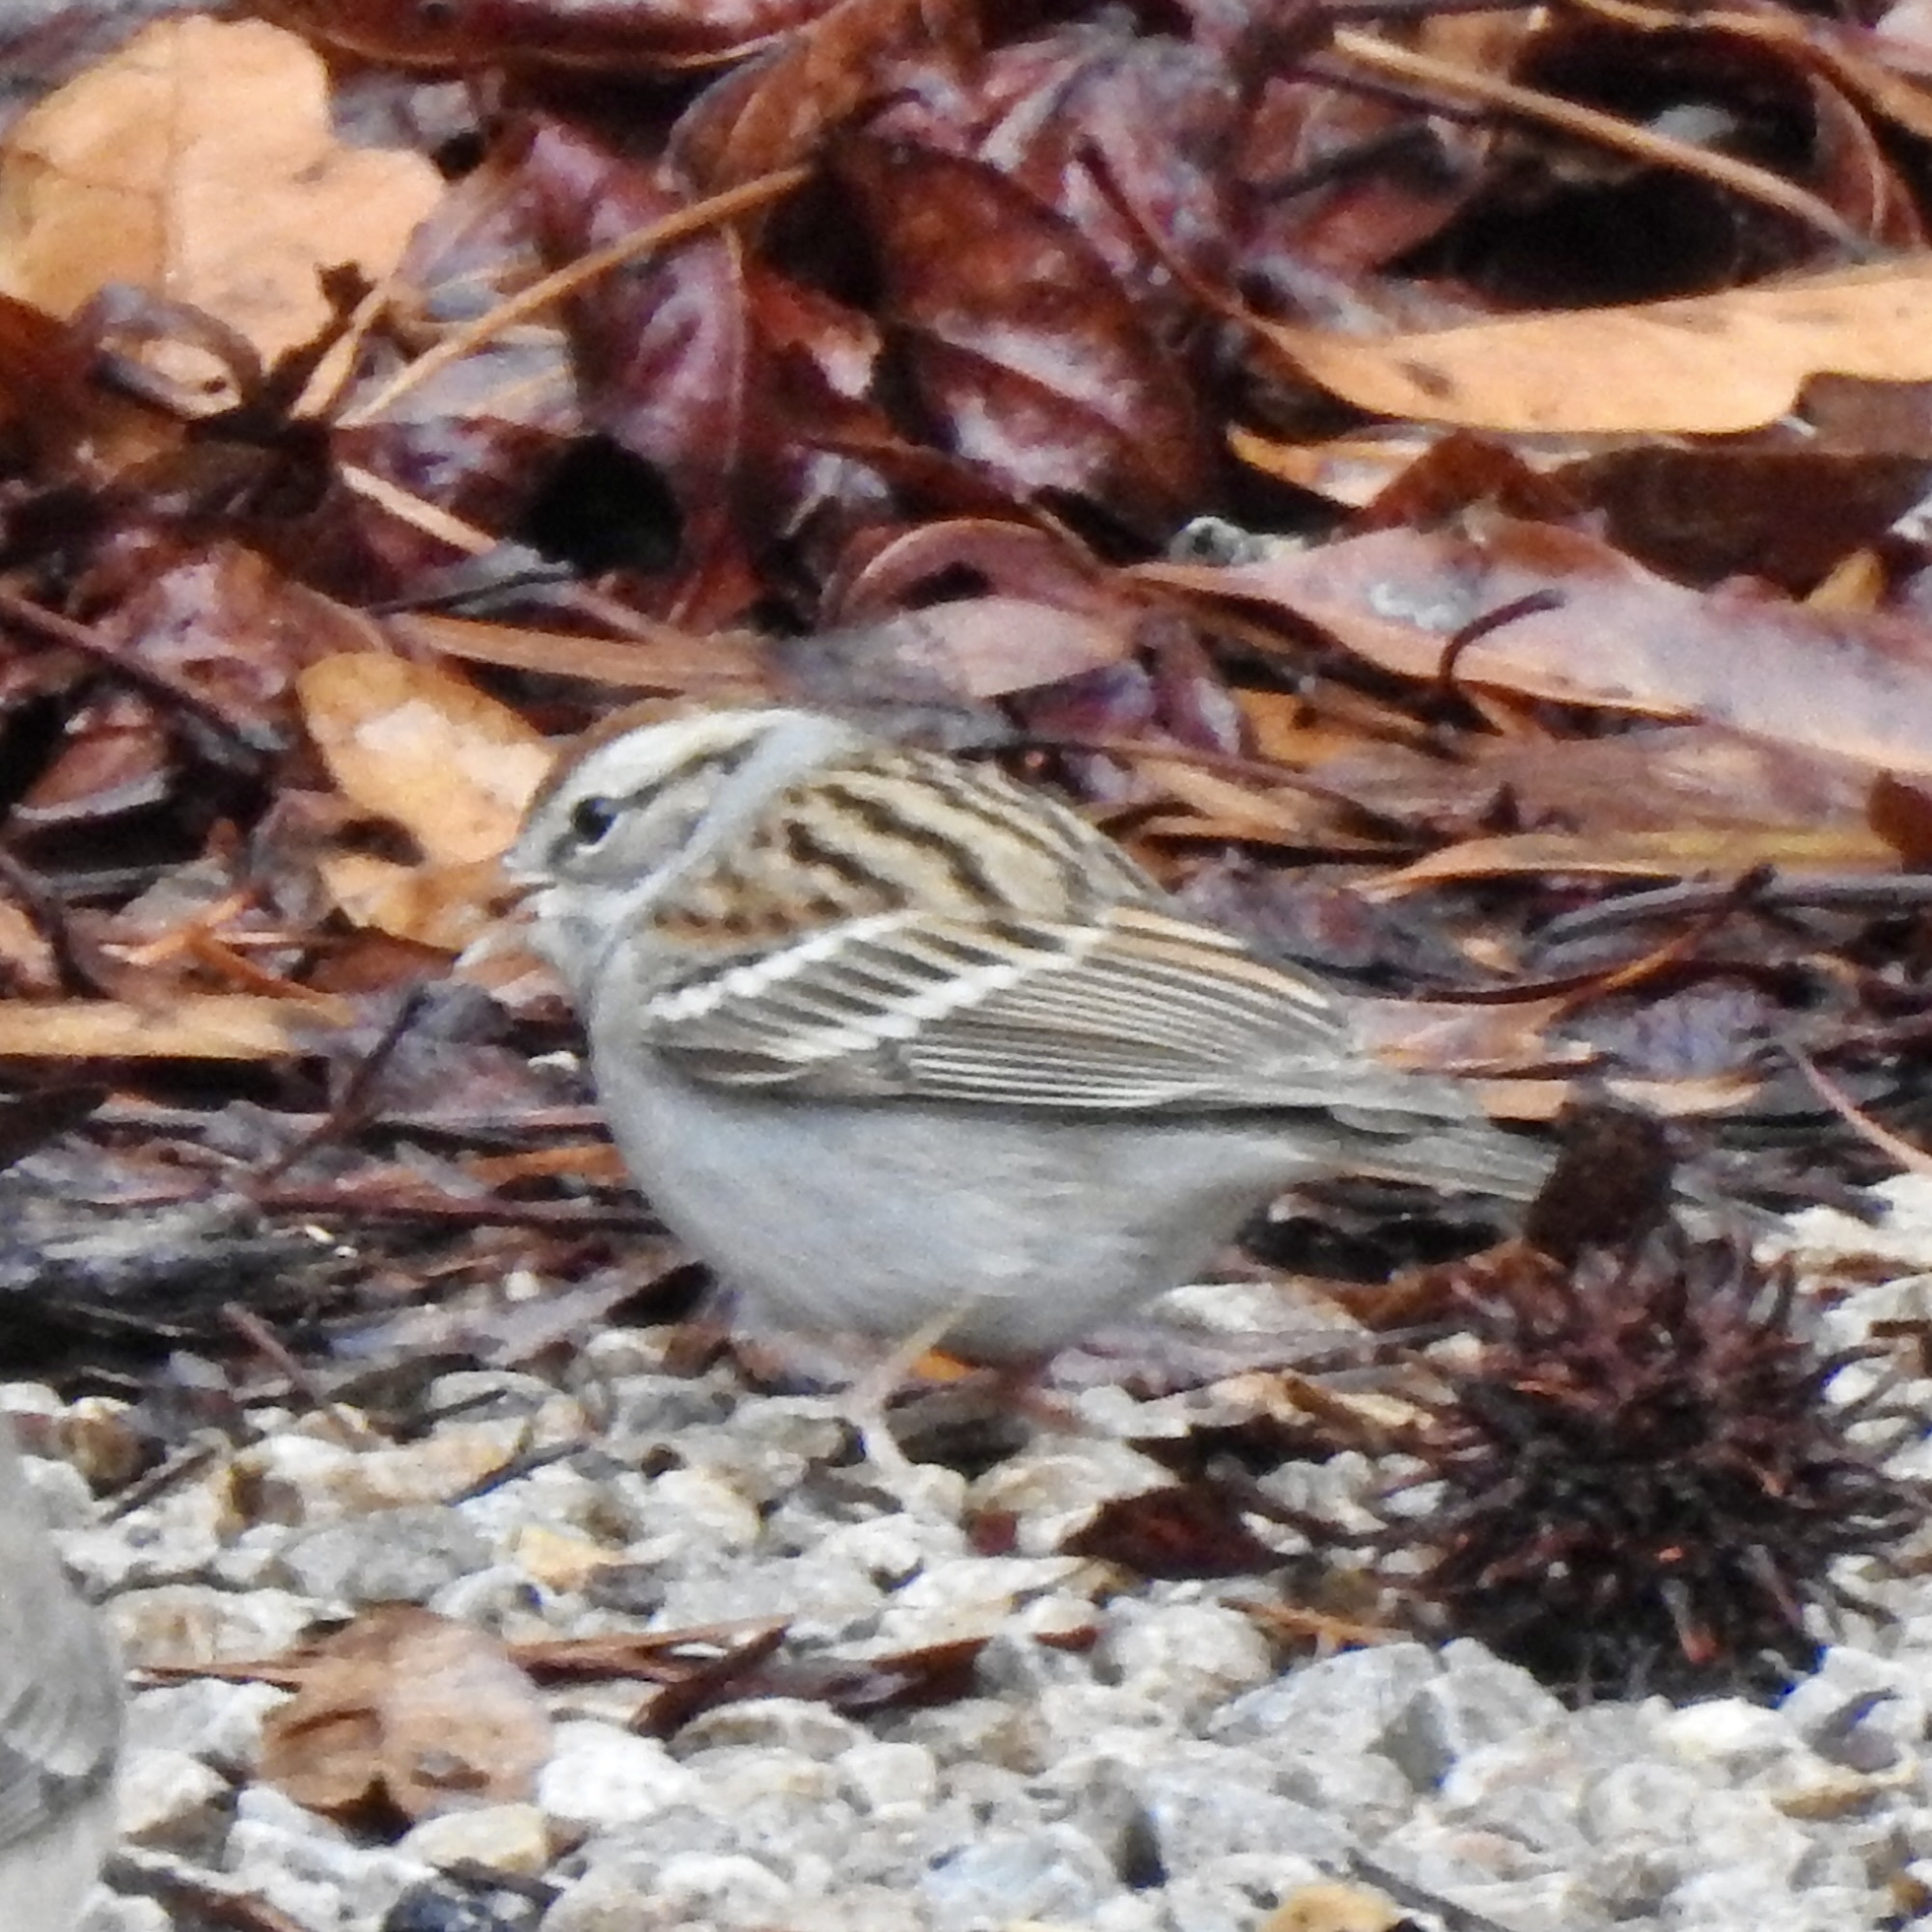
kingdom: Animalia
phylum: Chordata
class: Aves
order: Passeriformes
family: Passerellidae
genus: Spizella
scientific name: Spizella passerina
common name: Chipping sparrow
